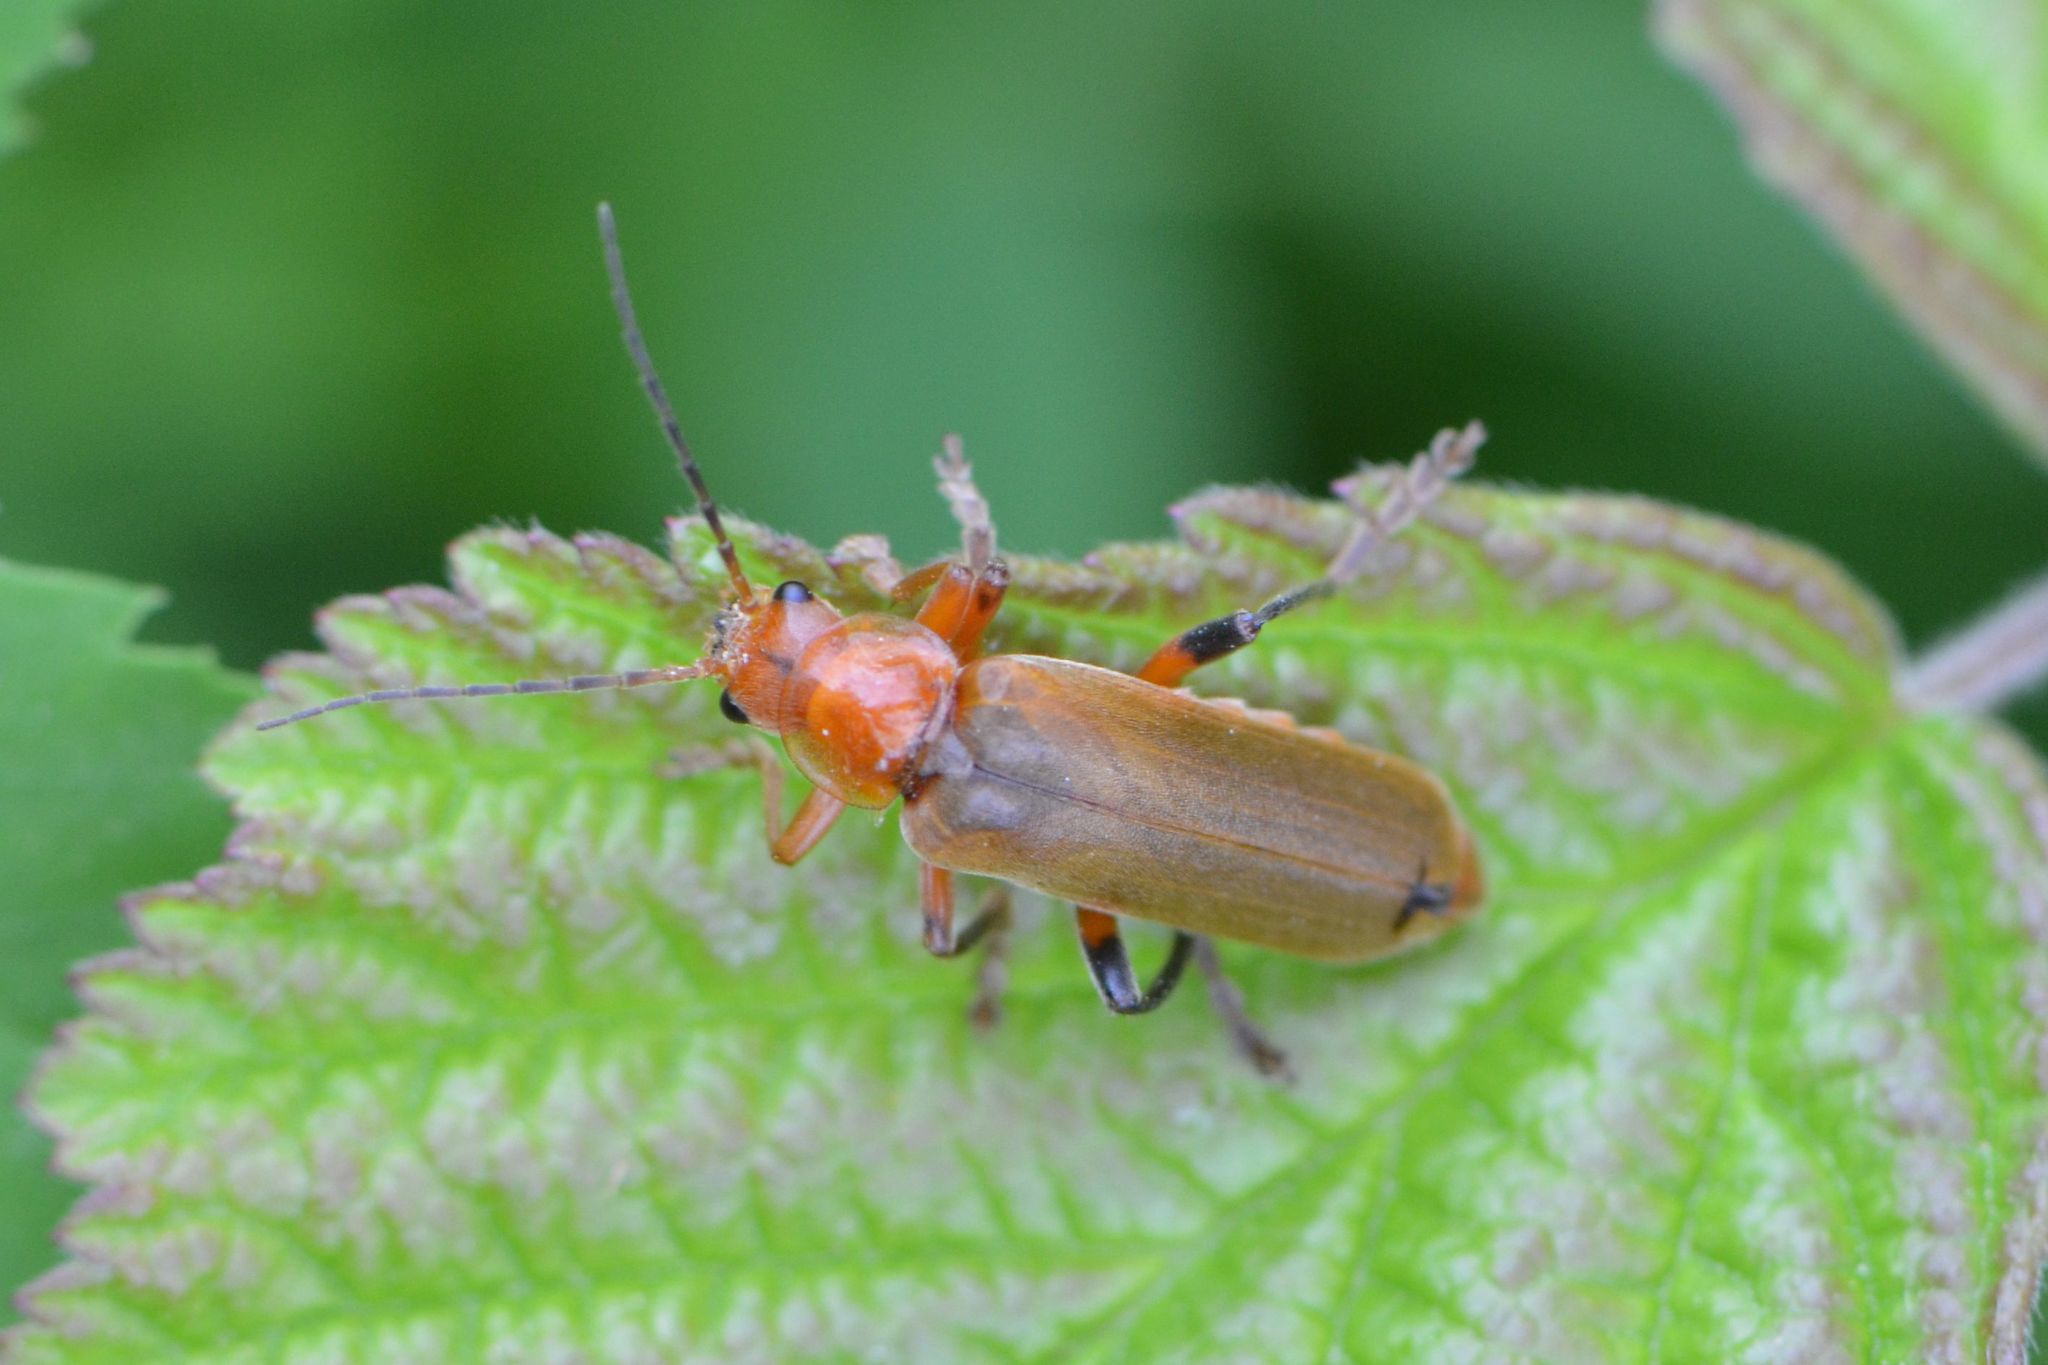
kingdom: Animalia
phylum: Arthropoda
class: Insecta
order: Coleoptera
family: Cantharidae
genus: Cantharis
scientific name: Cantharis livida
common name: Livid soldier beetle
